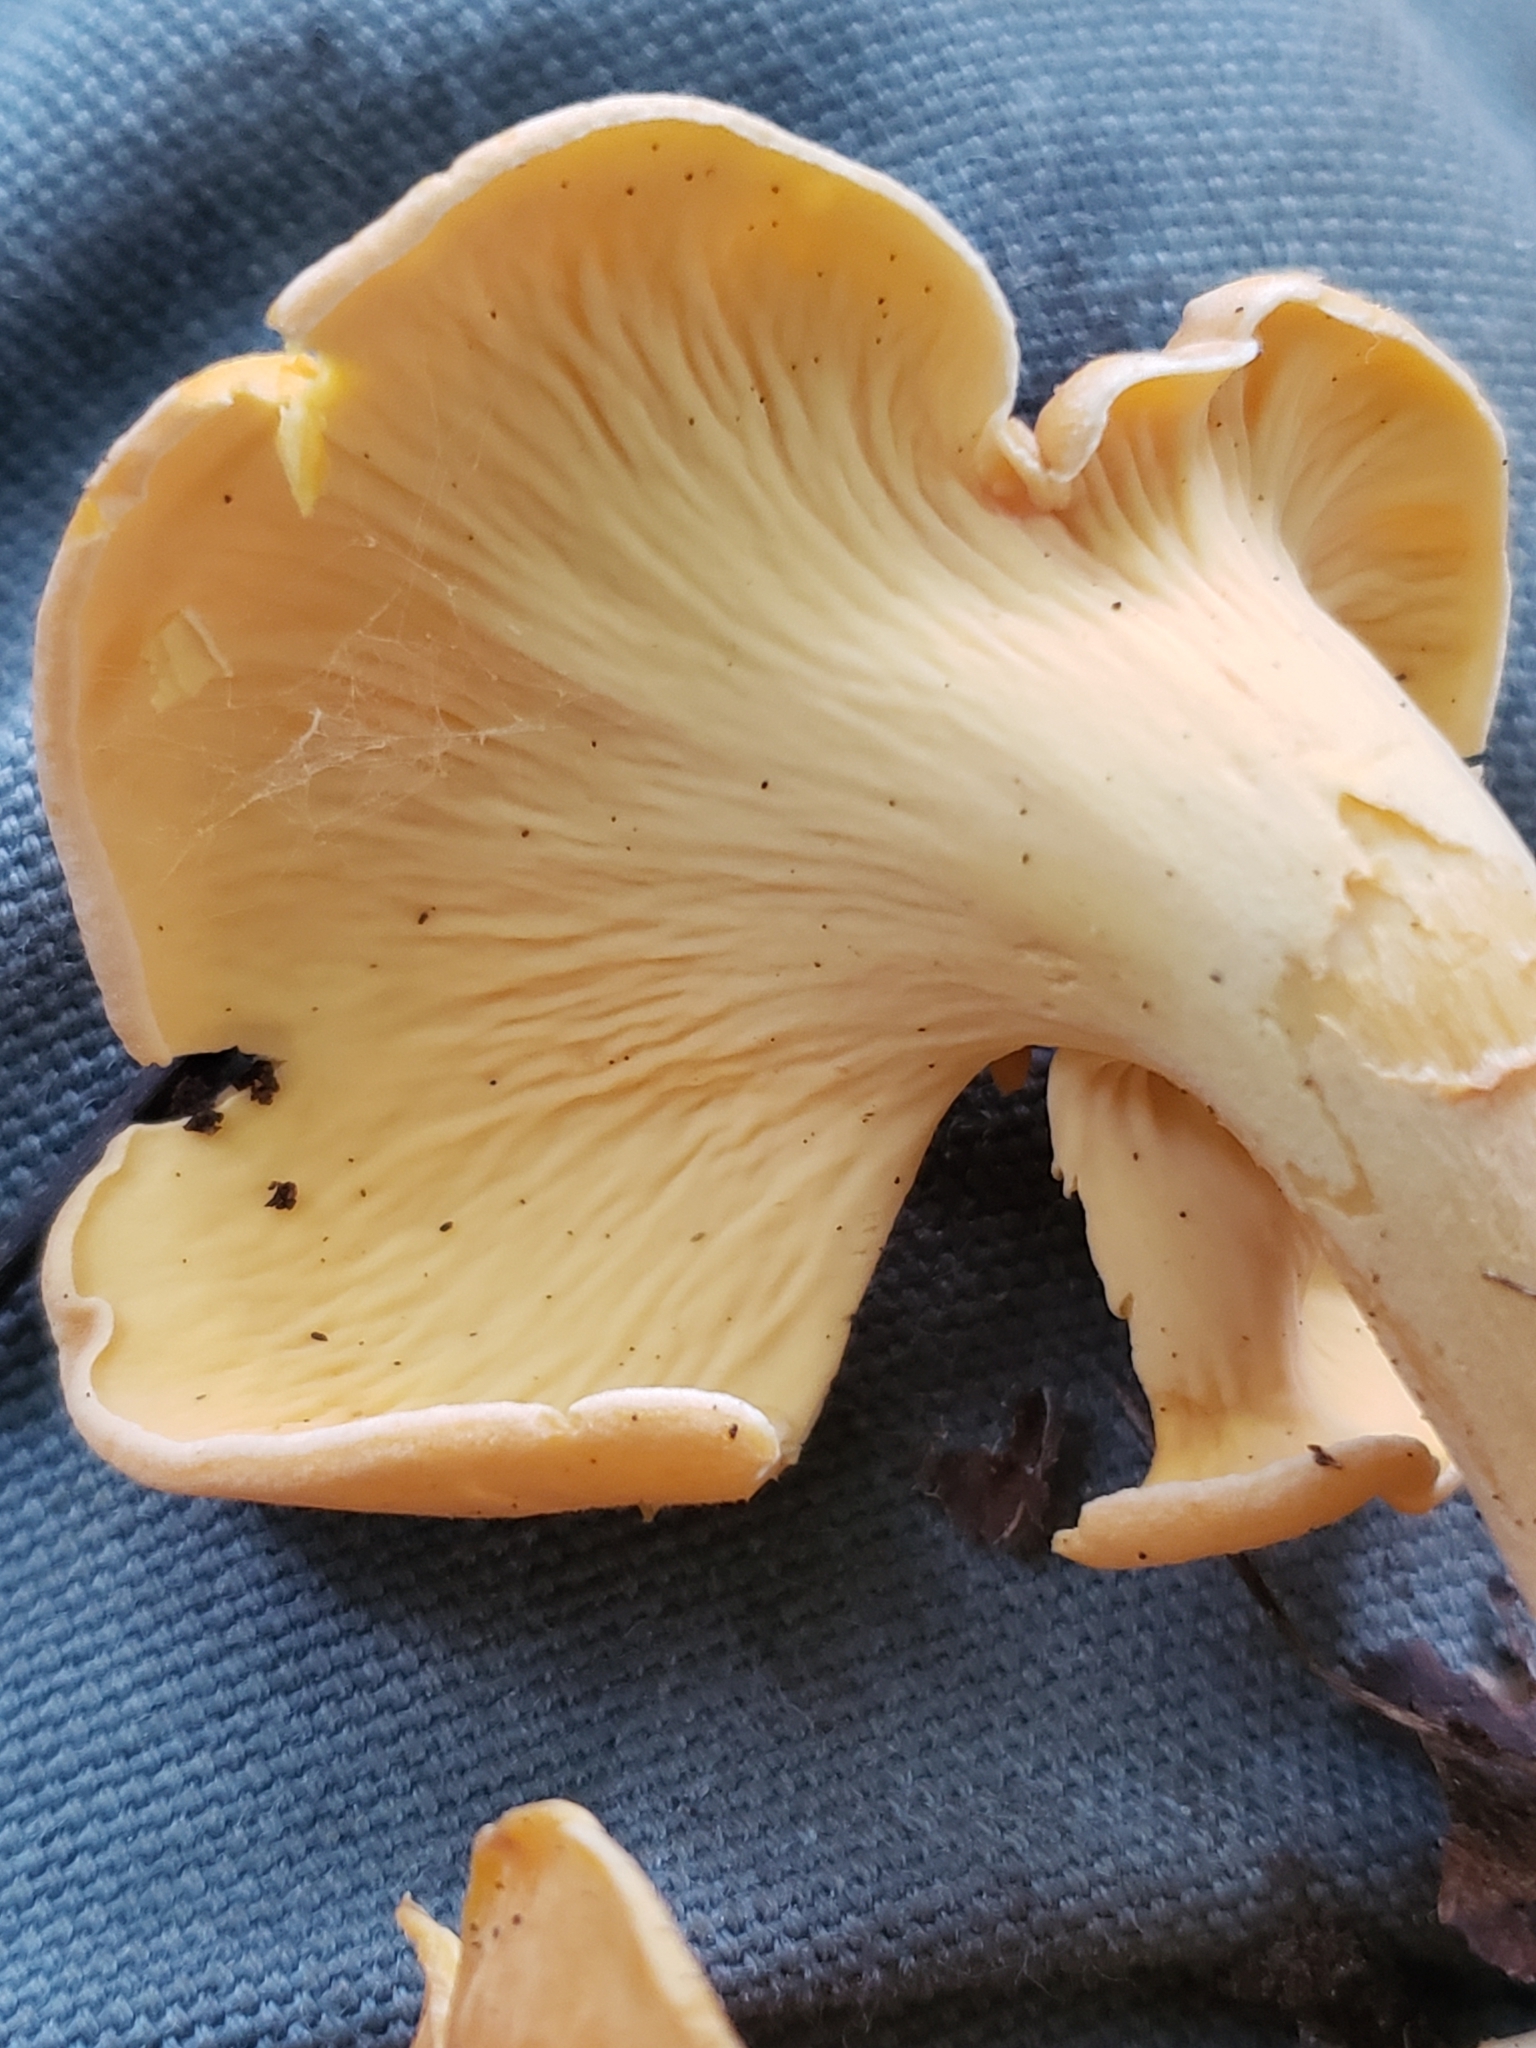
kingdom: Fungi
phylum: Basidiomycota
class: Agaricomycetes
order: Cantharellales
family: Hydnaceae
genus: Cantharellus
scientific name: Cantharellus lateritius
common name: Smooth chanterelle
